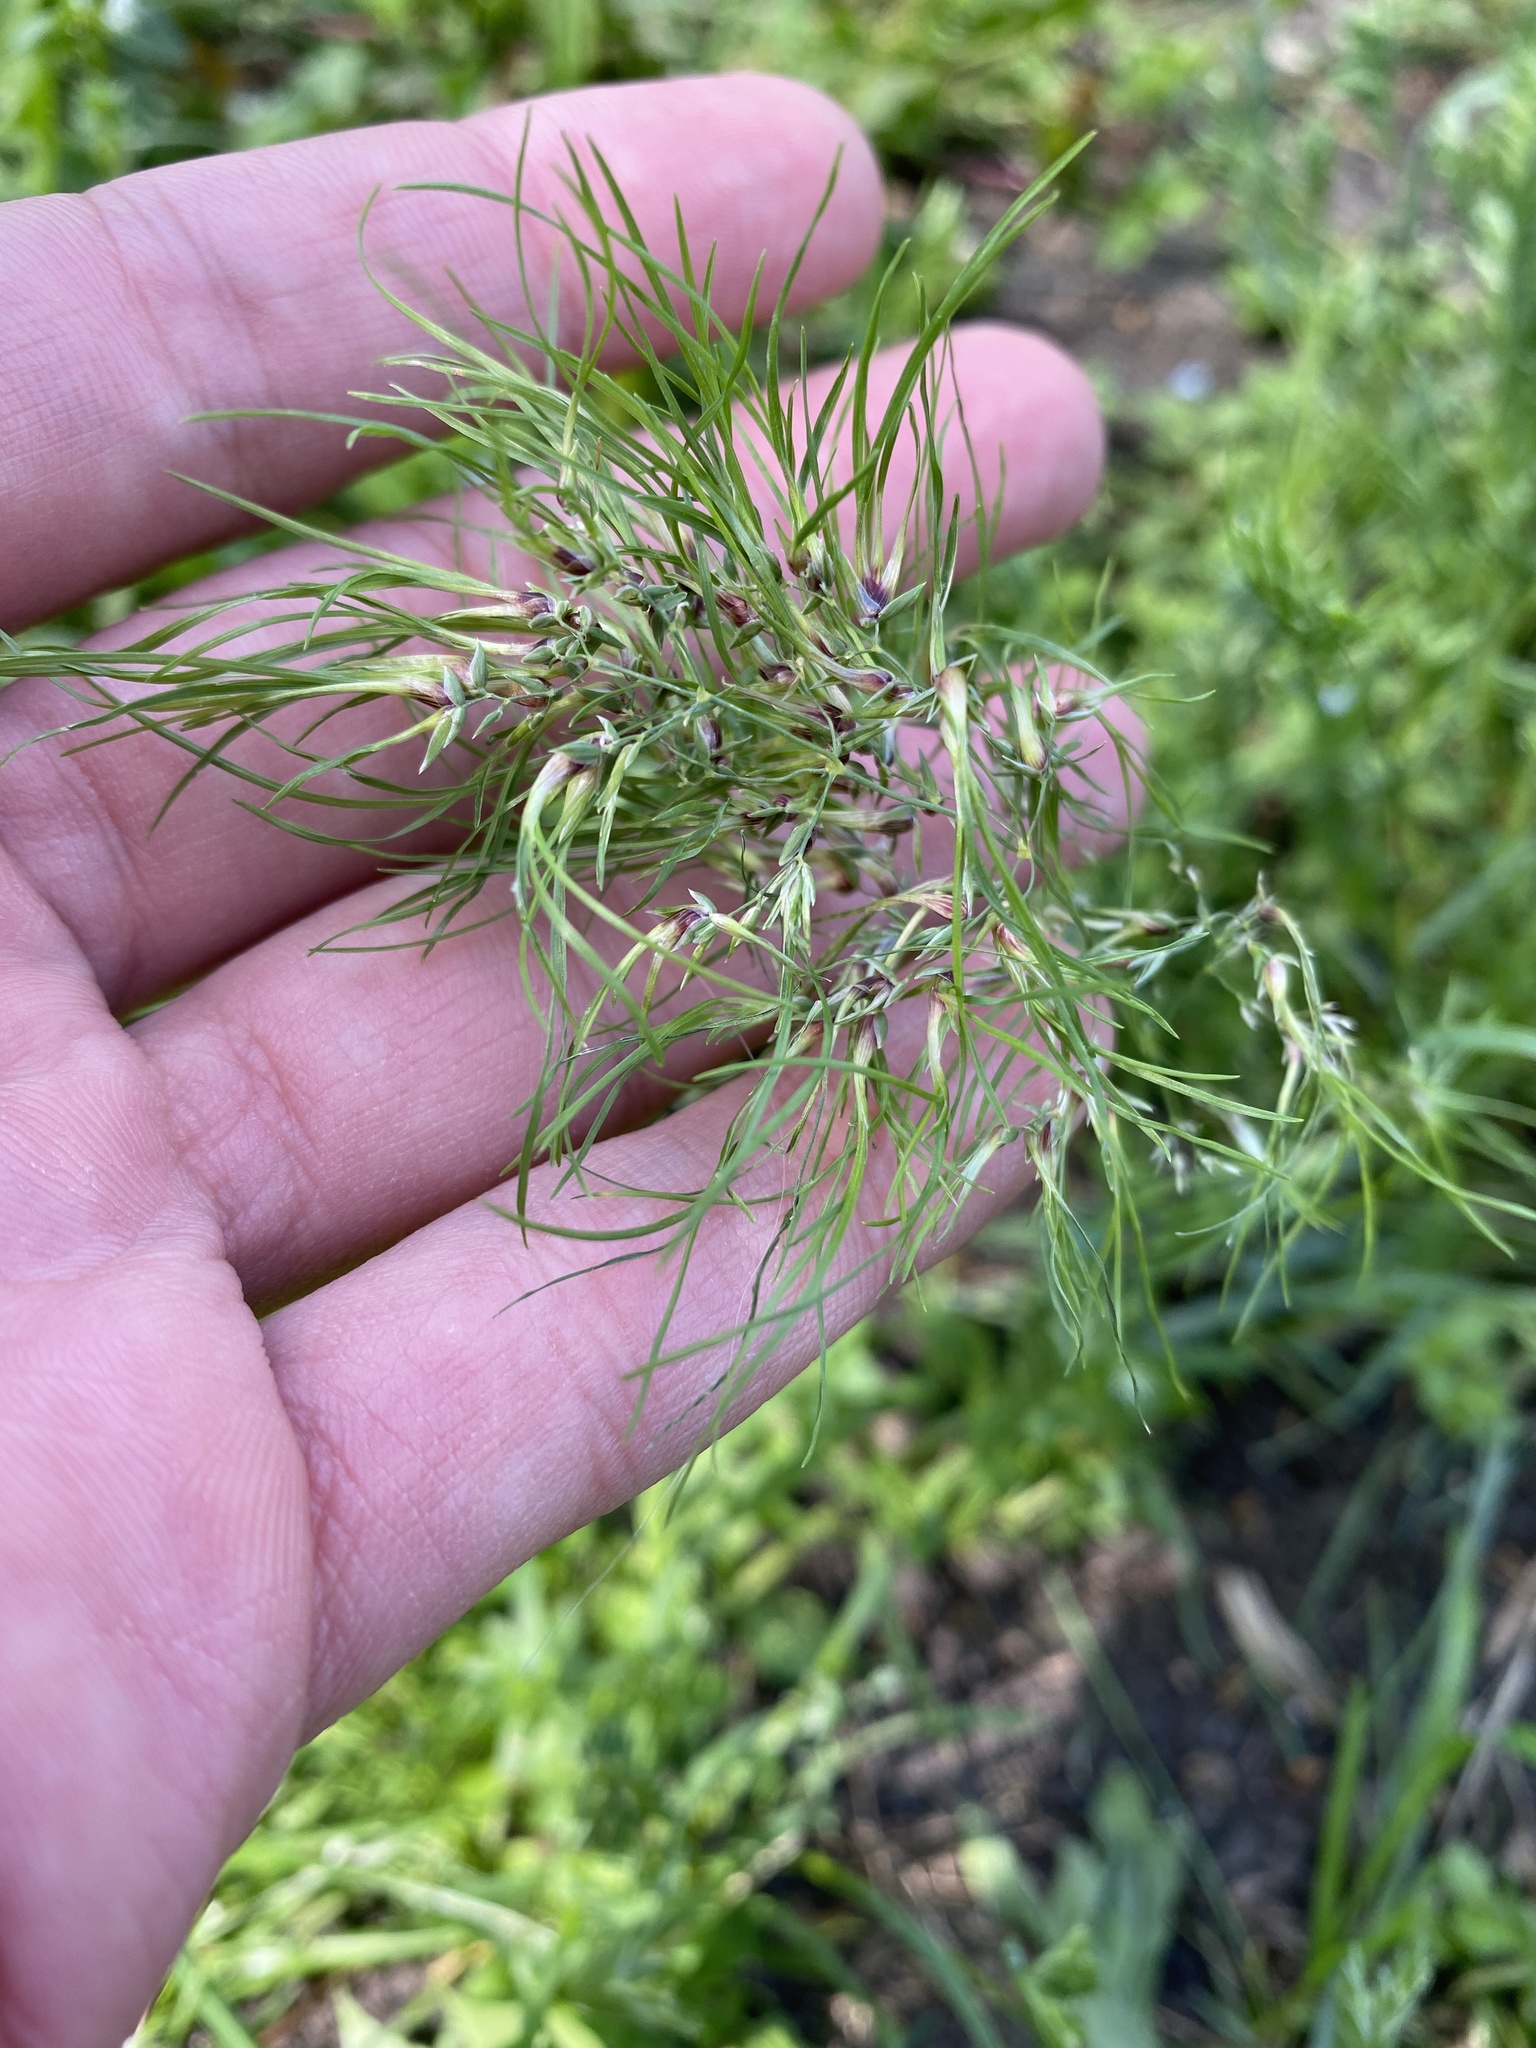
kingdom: Plantae
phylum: Tracheophyta
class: Liliopsida
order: Poales
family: Poaceae
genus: Poa
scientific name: Poa bulbosa
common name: Bulbous bluegrass
